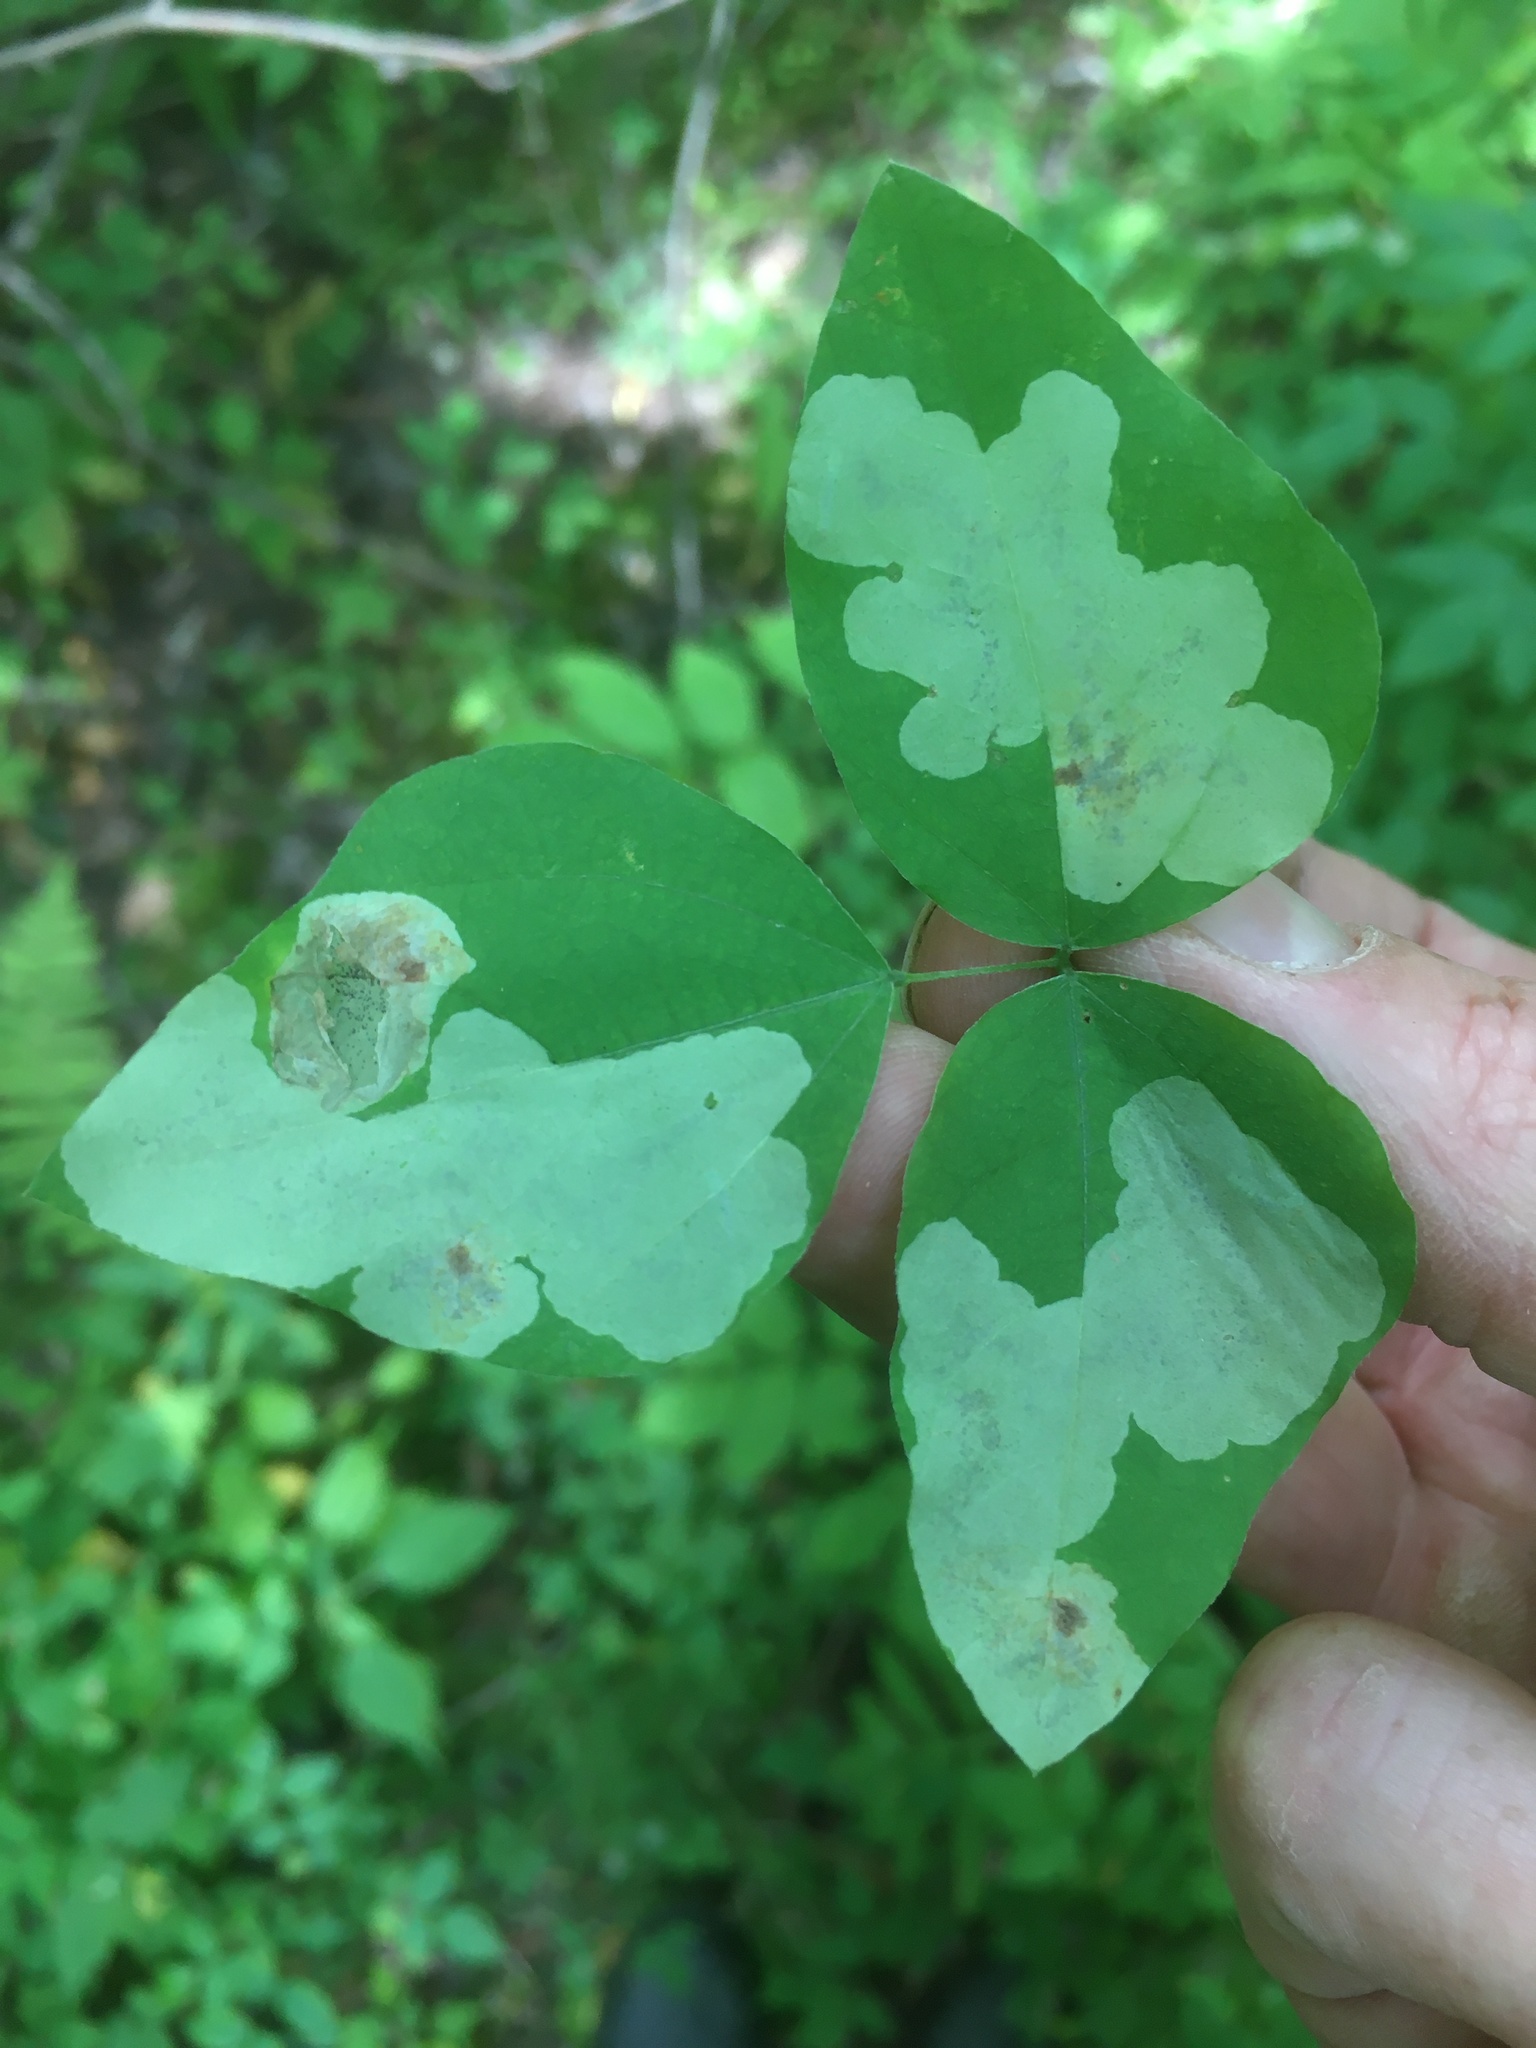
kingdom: Animalia
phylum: Arthropoda
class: Insecta
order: Lepidoptera
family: Gracillariidae
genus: Leucanthiza
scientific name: Leucanthiza amphicarpeaefoliella
